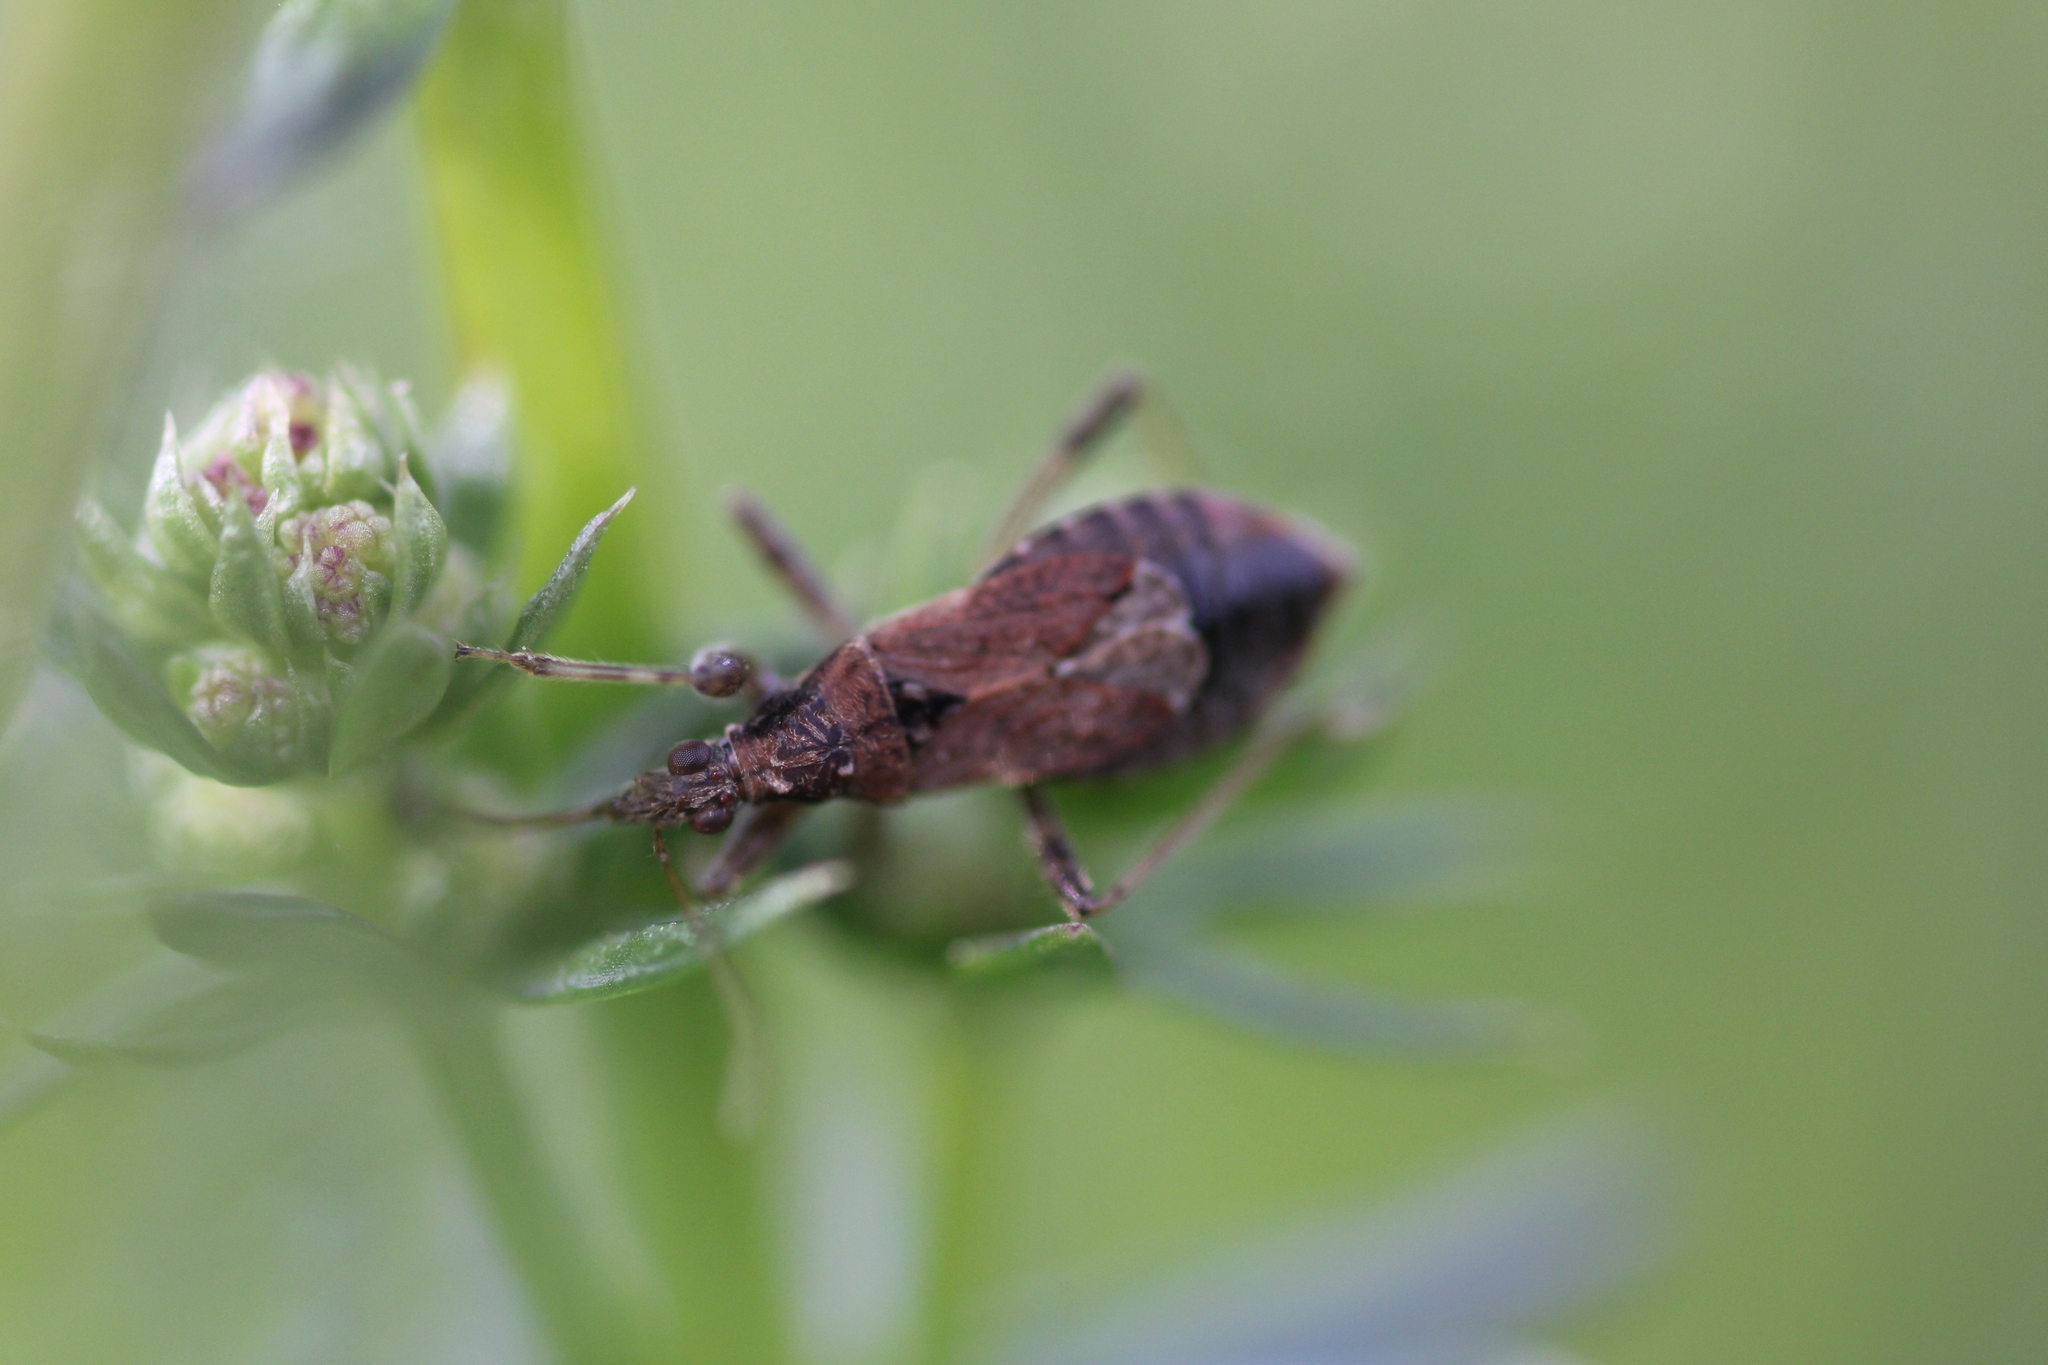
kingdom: Animalia
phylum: Arthropoda
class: Insecta
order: Hemiptera
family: Nabidae
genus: Himacerus
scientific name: Himacerus mirmicoides
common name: Ant damsel bug
